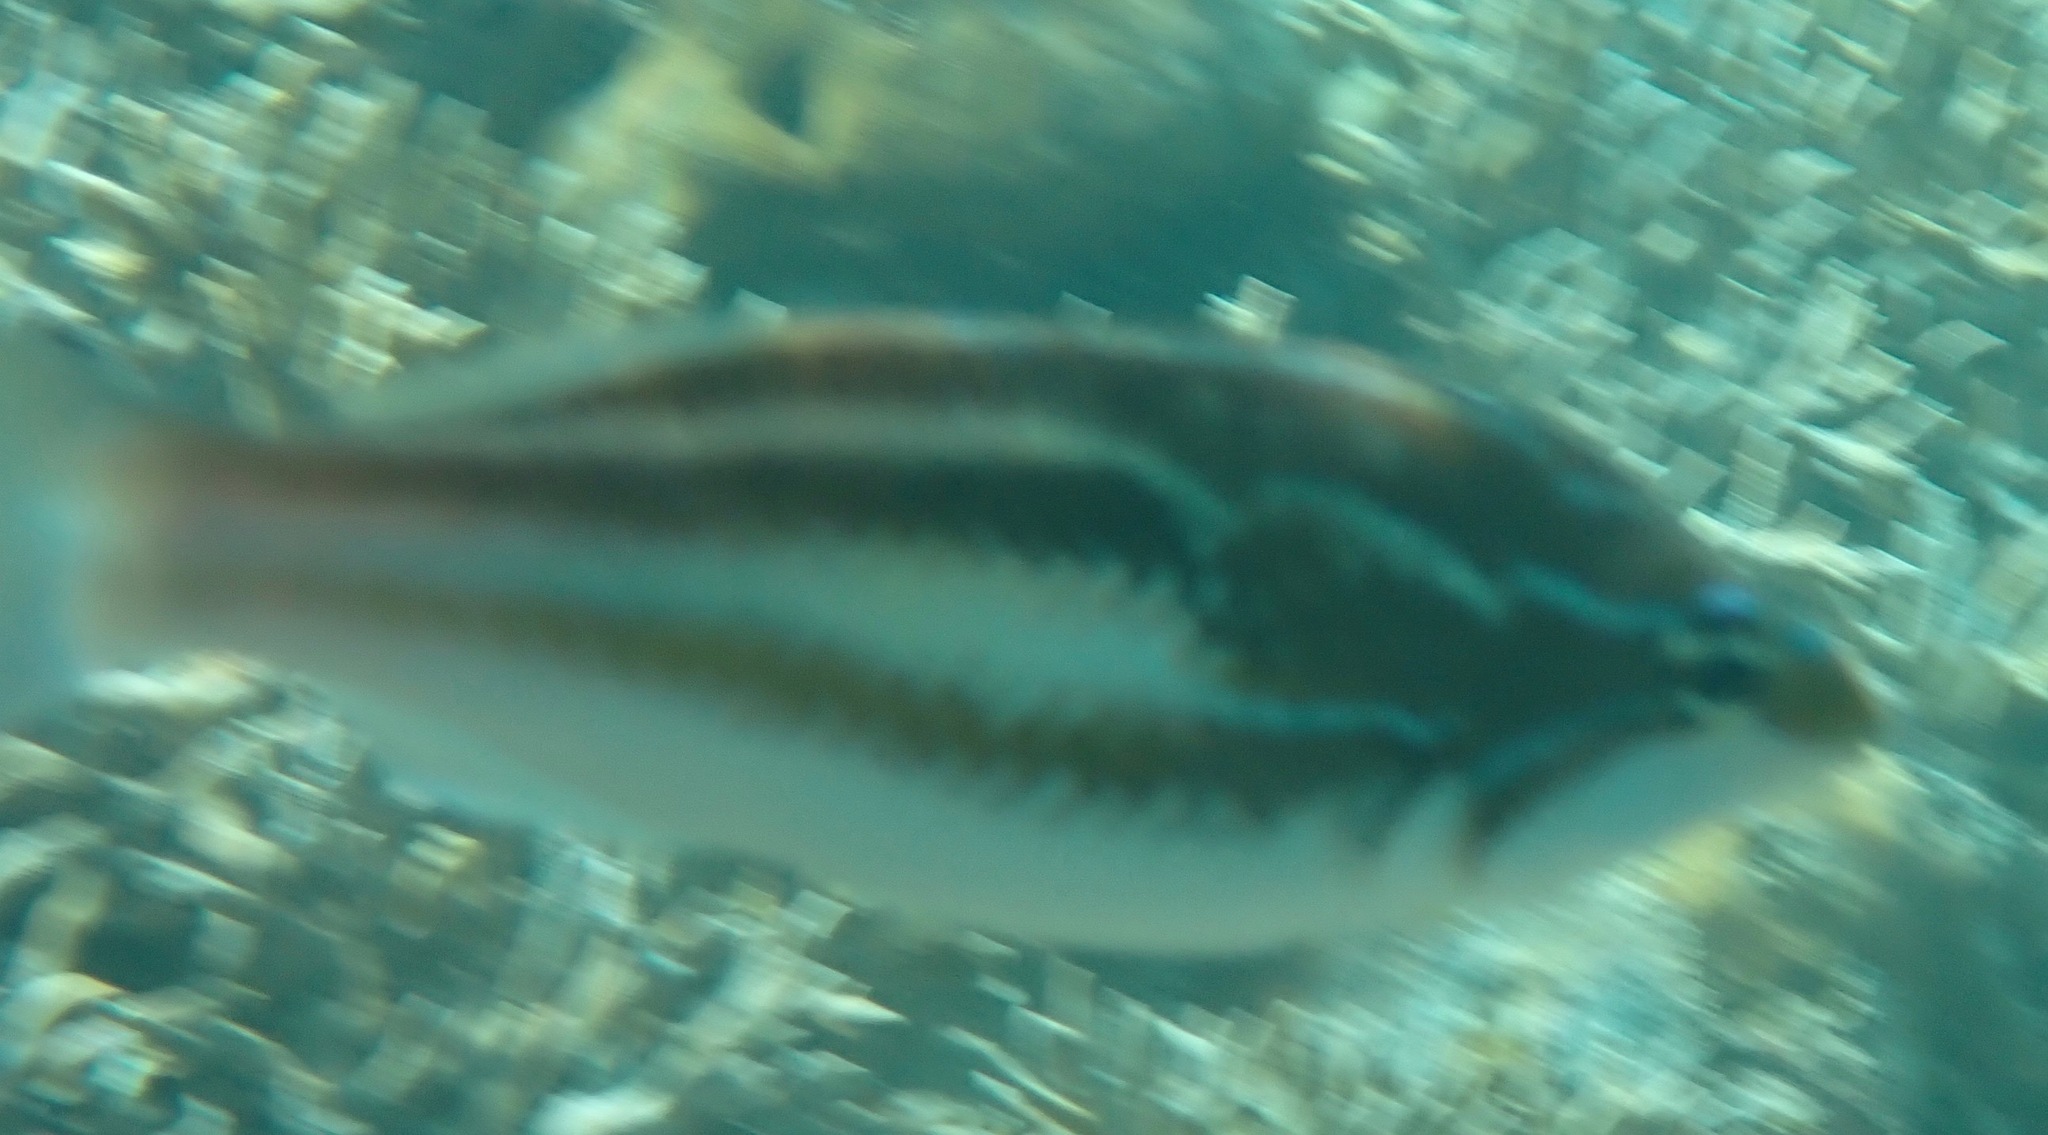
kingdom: Animalia
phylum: Chordata
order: Perciformes
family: Nemipteridae
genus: Pentapodus
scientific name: Pentapodus trivittatus
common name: Three-striped whiptail
